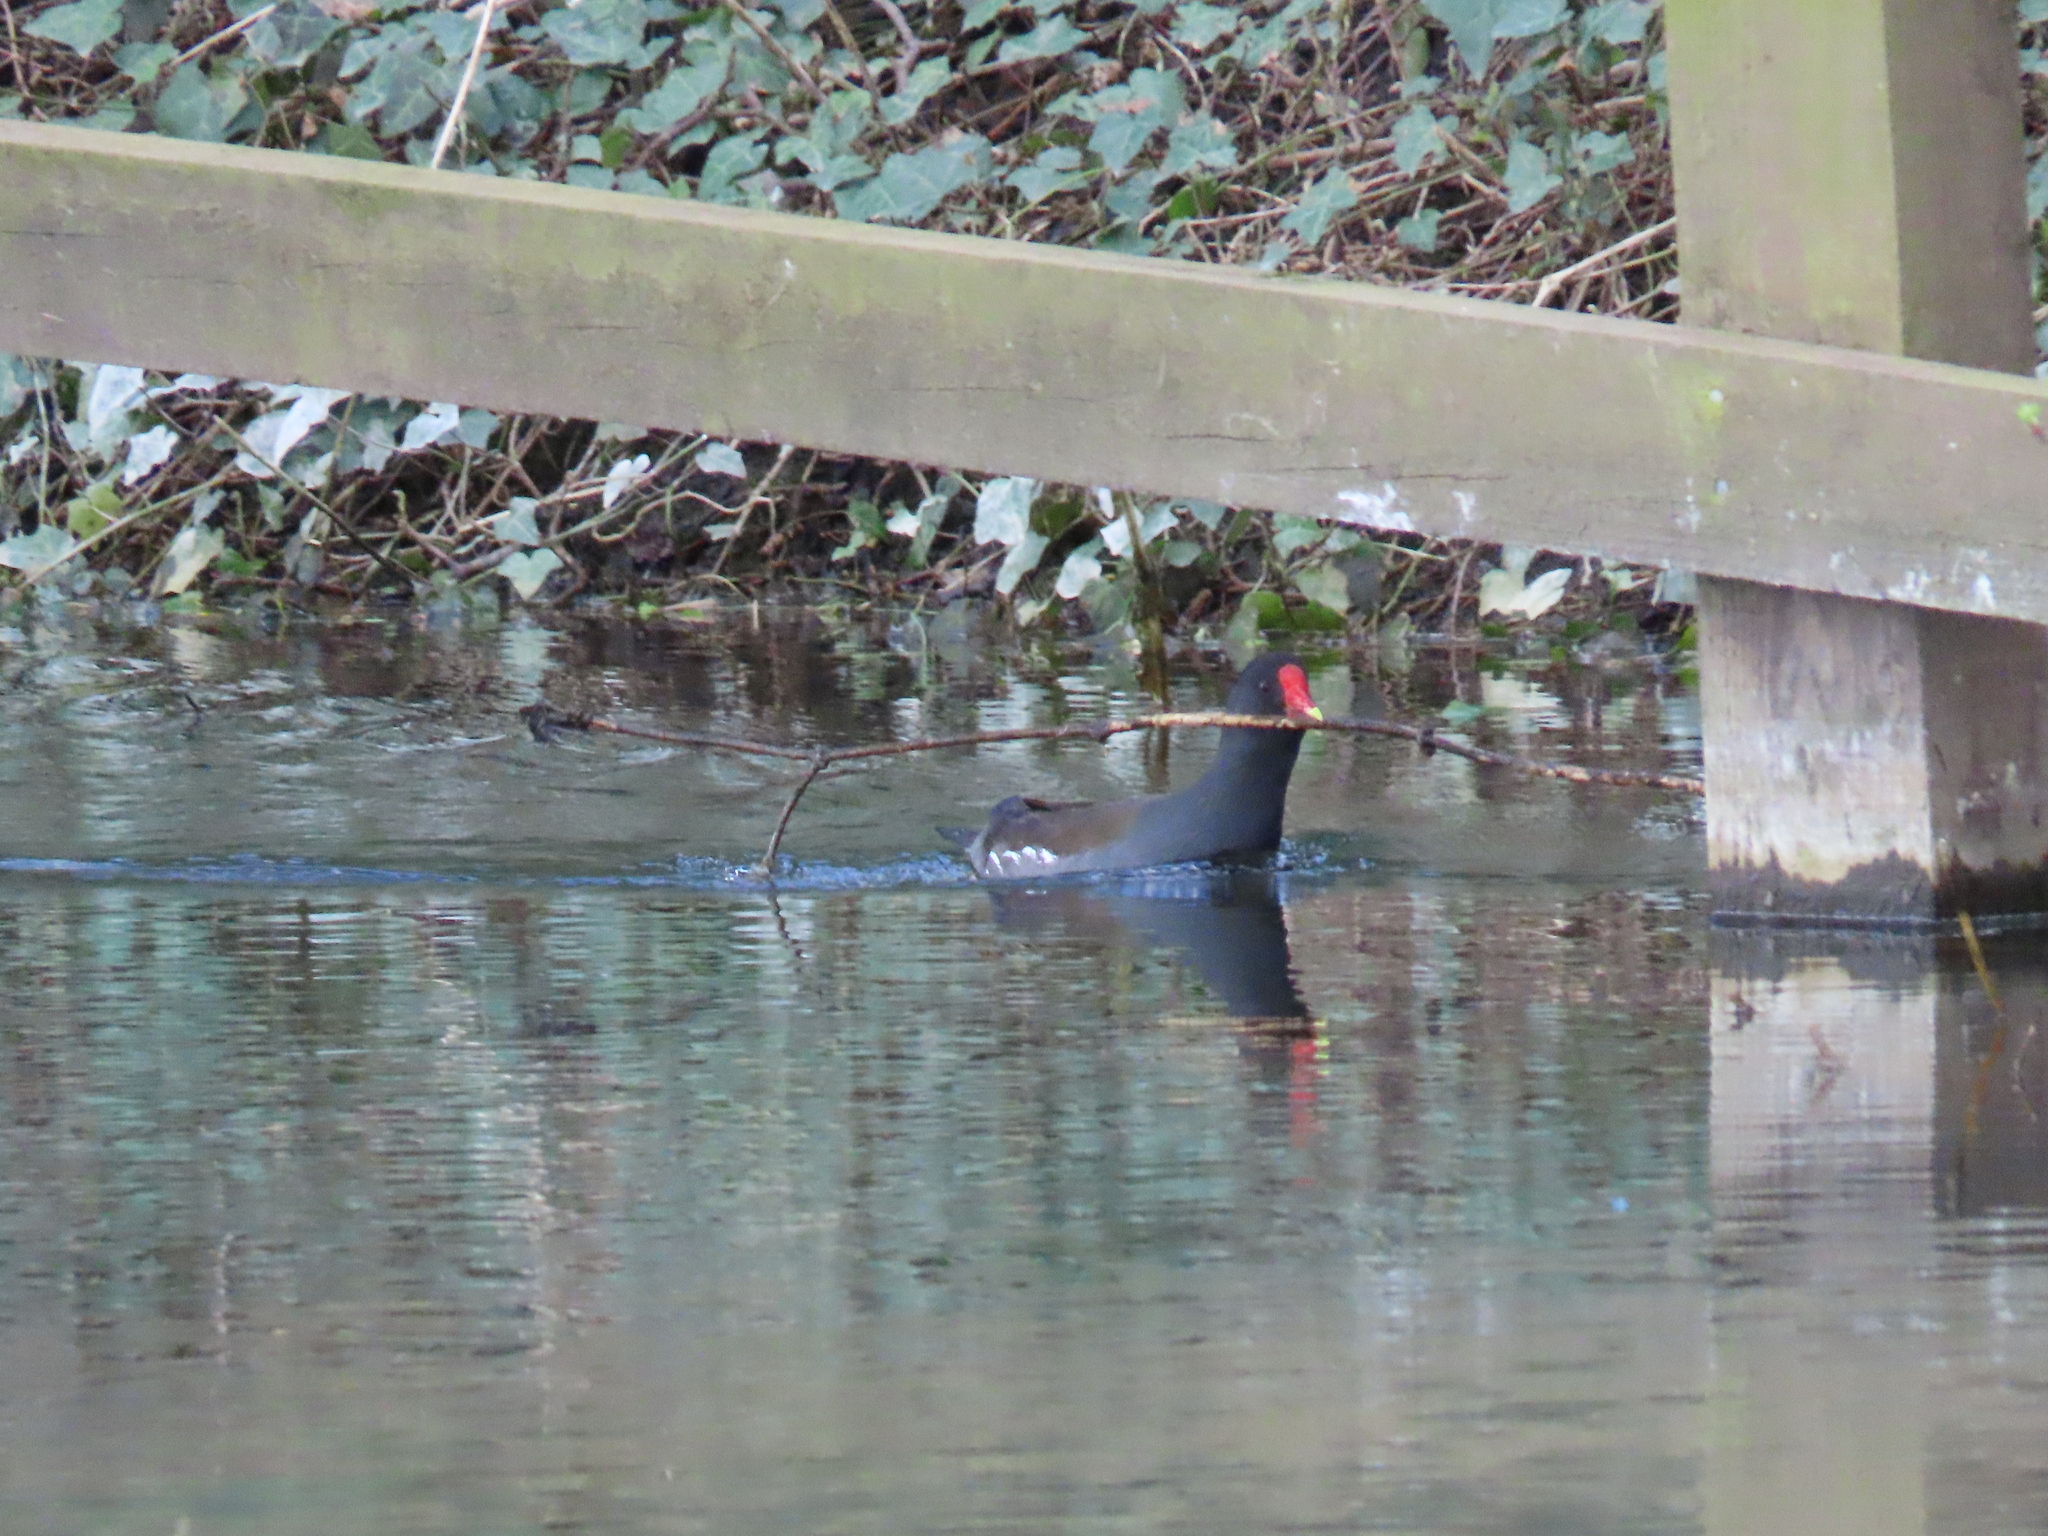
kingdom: Animalia
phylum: Chordata
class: Aves
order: Gruiformes
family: Rallidae
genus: Gallinula
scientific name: Gallinula chloropus
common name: Common moorhen
